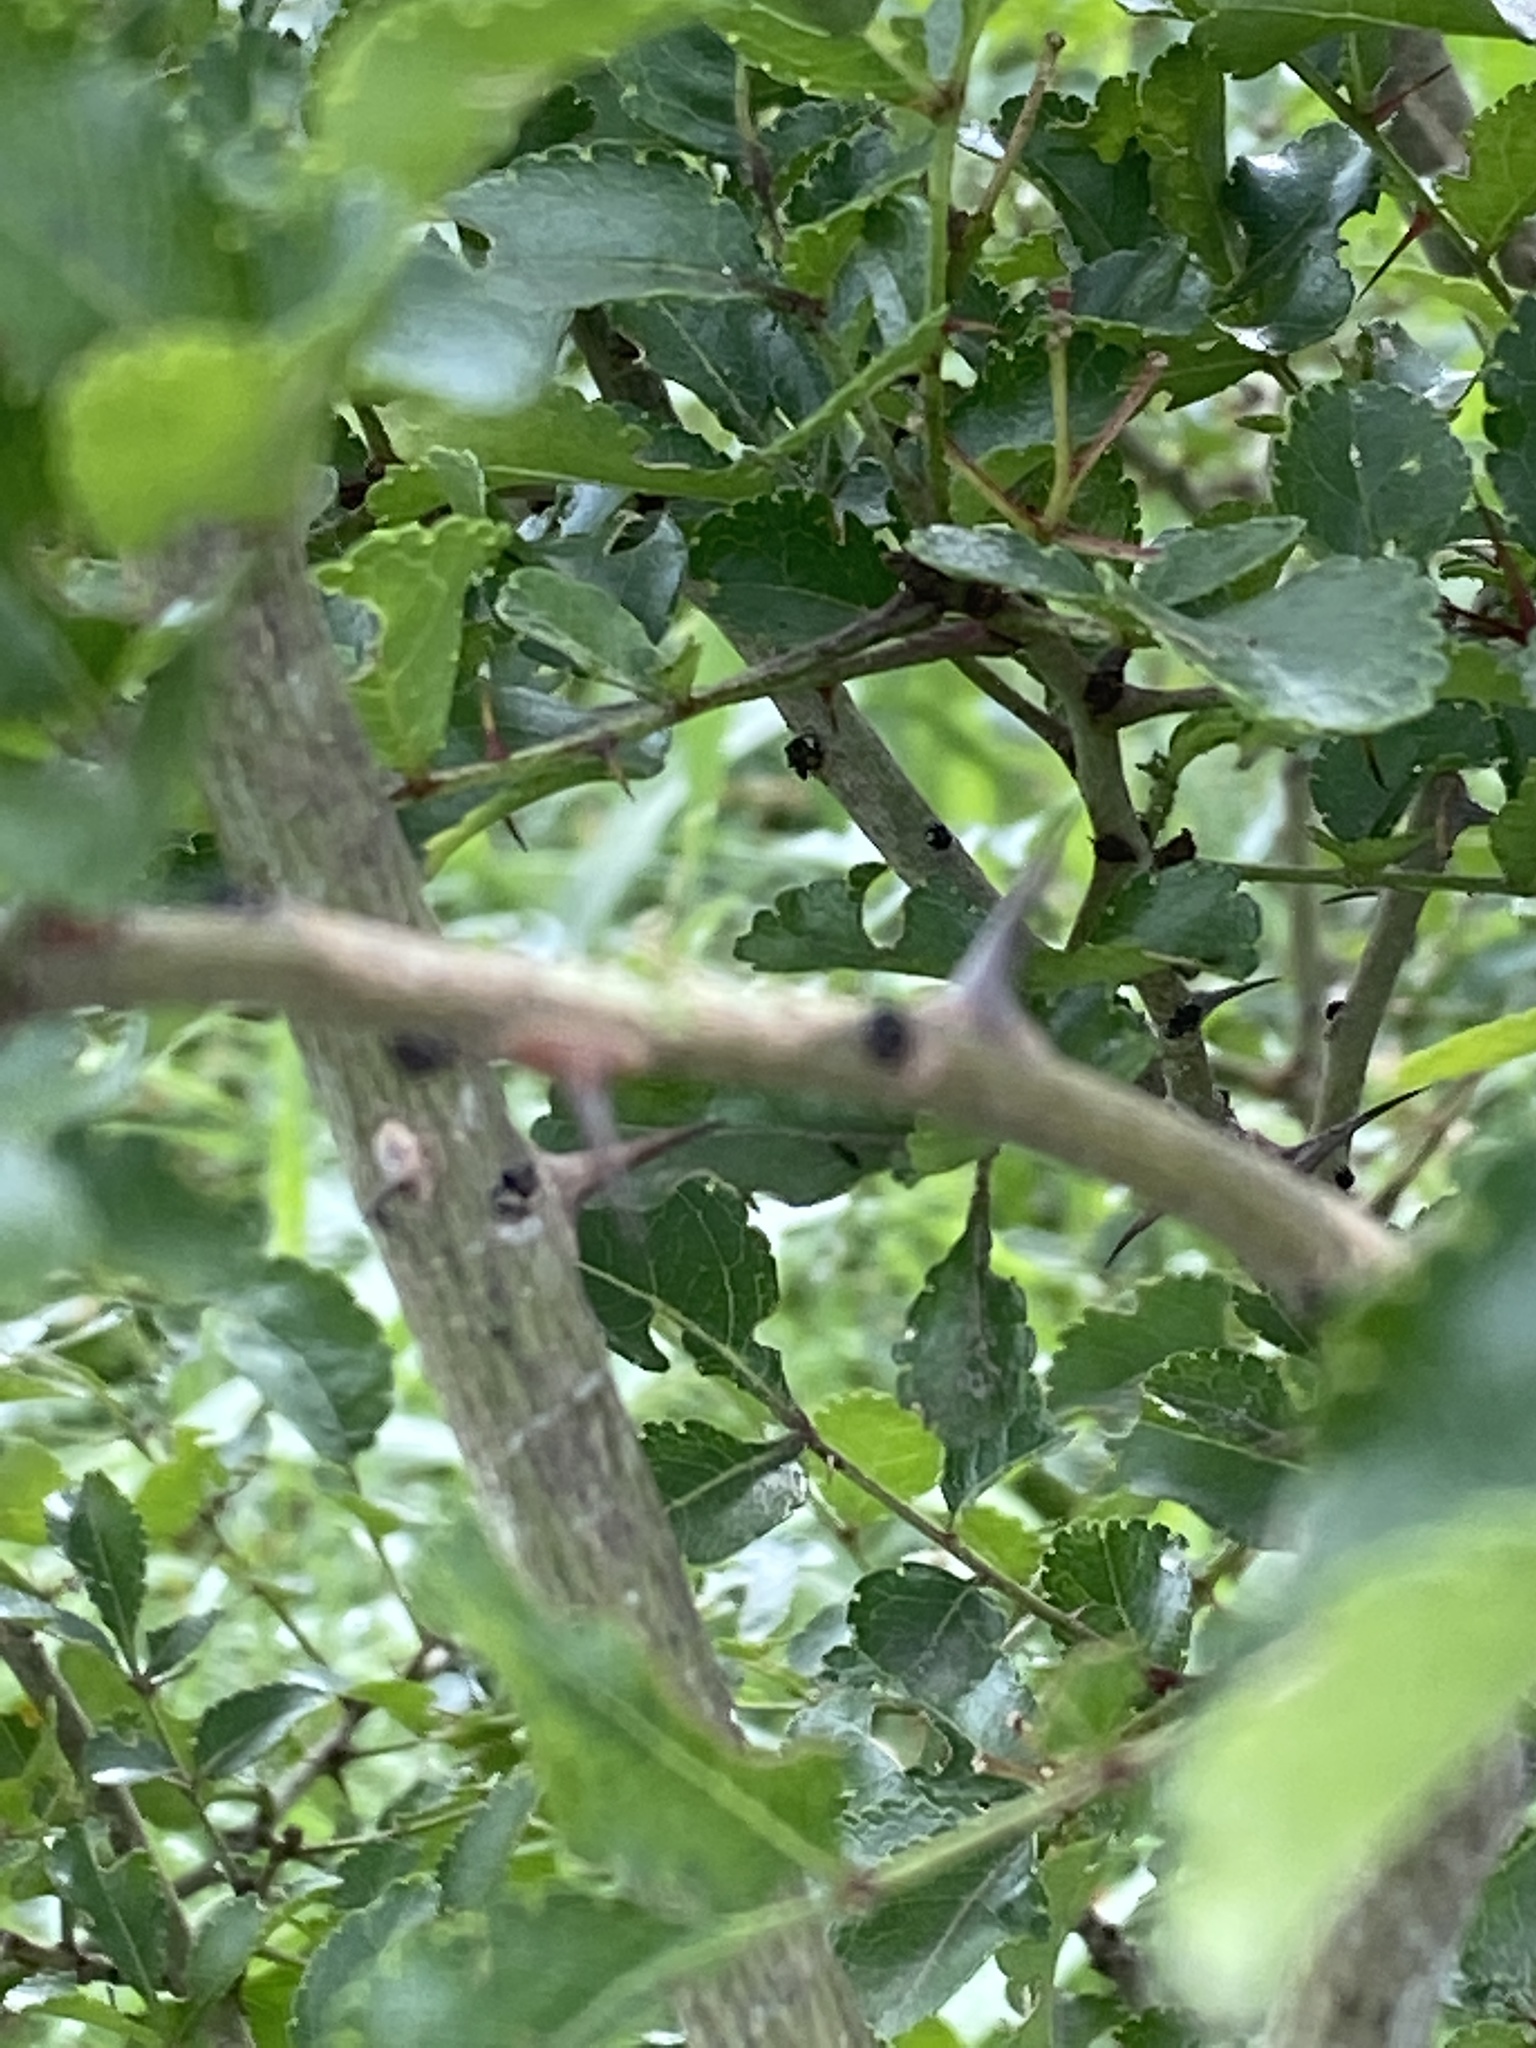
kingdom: Plantae
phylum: Tracheophyta
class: Magnoliopsida
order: Sapindales
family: Rutaceae
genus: Zanthoxylum
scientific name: Zanthoxylum clava-herculis
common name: Hercules'-club
